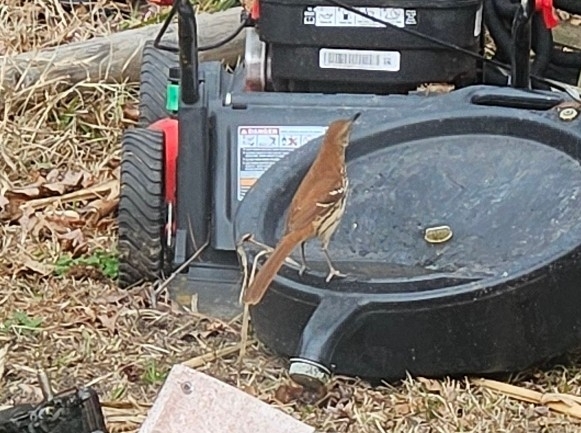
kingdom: Animalia
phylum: Chordata
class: Aves
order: Passeriformes
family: Mimidae
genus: Toxostoma
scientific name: Toxostoma rufum
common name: Brown thrasher
